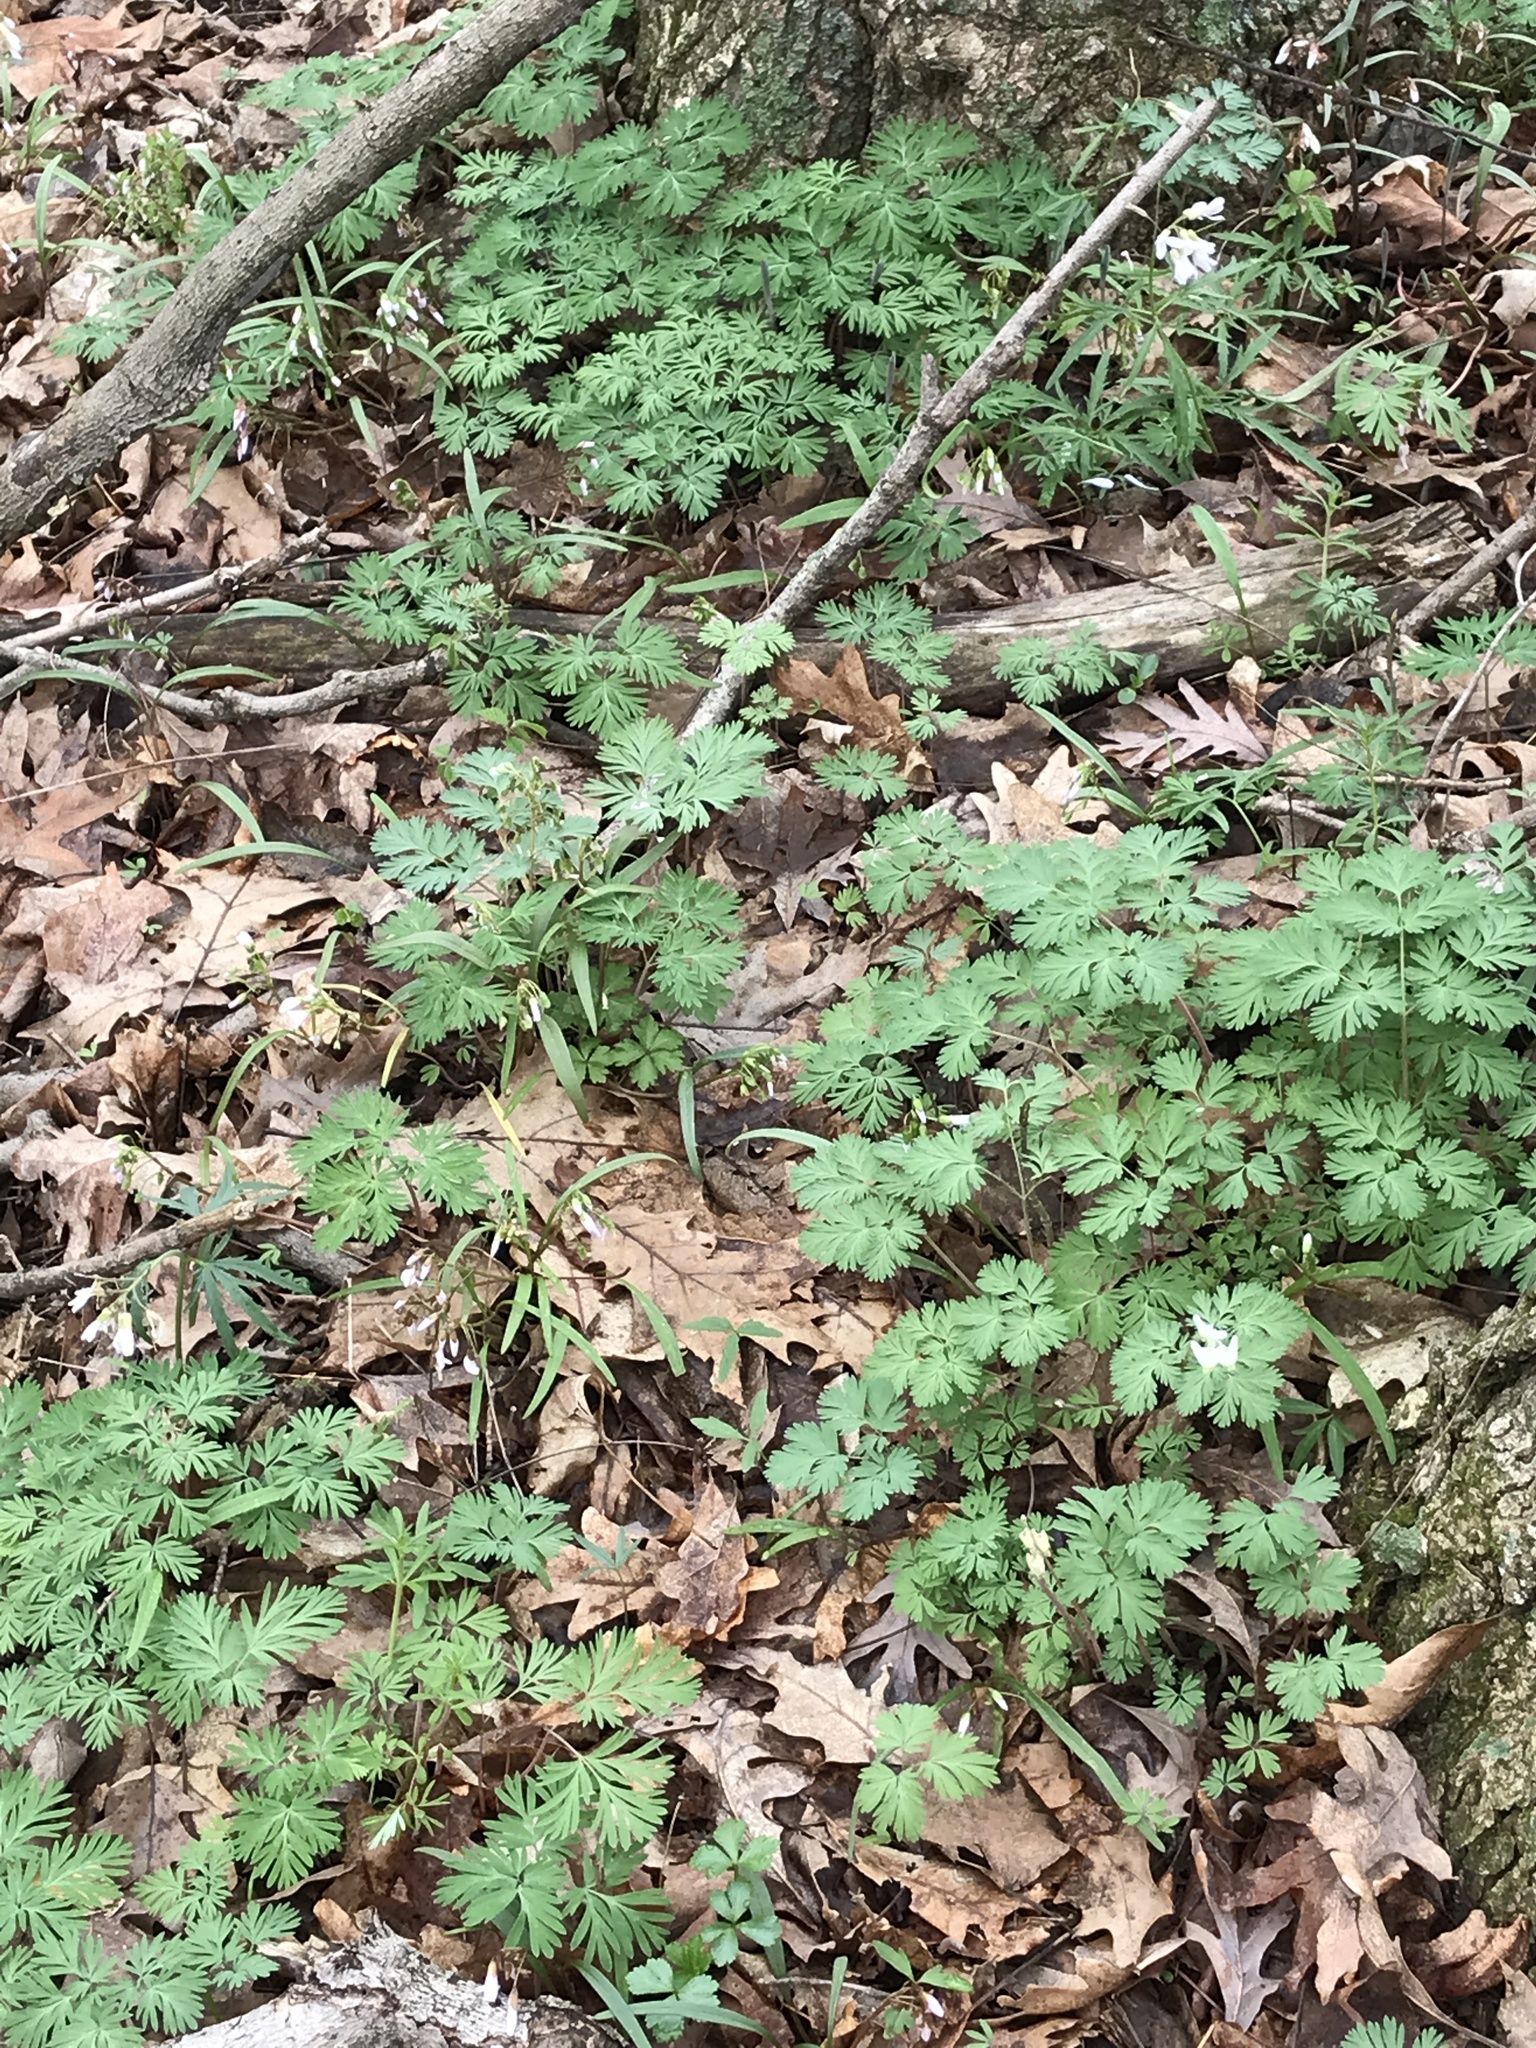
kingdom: Plantae
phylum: Tracheophyta
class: Magnoliopsida
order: Ranunculales
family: Papaveraceae
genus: Dicentra
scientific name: Dicentra cucullaria
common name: Dutchman's breeches
